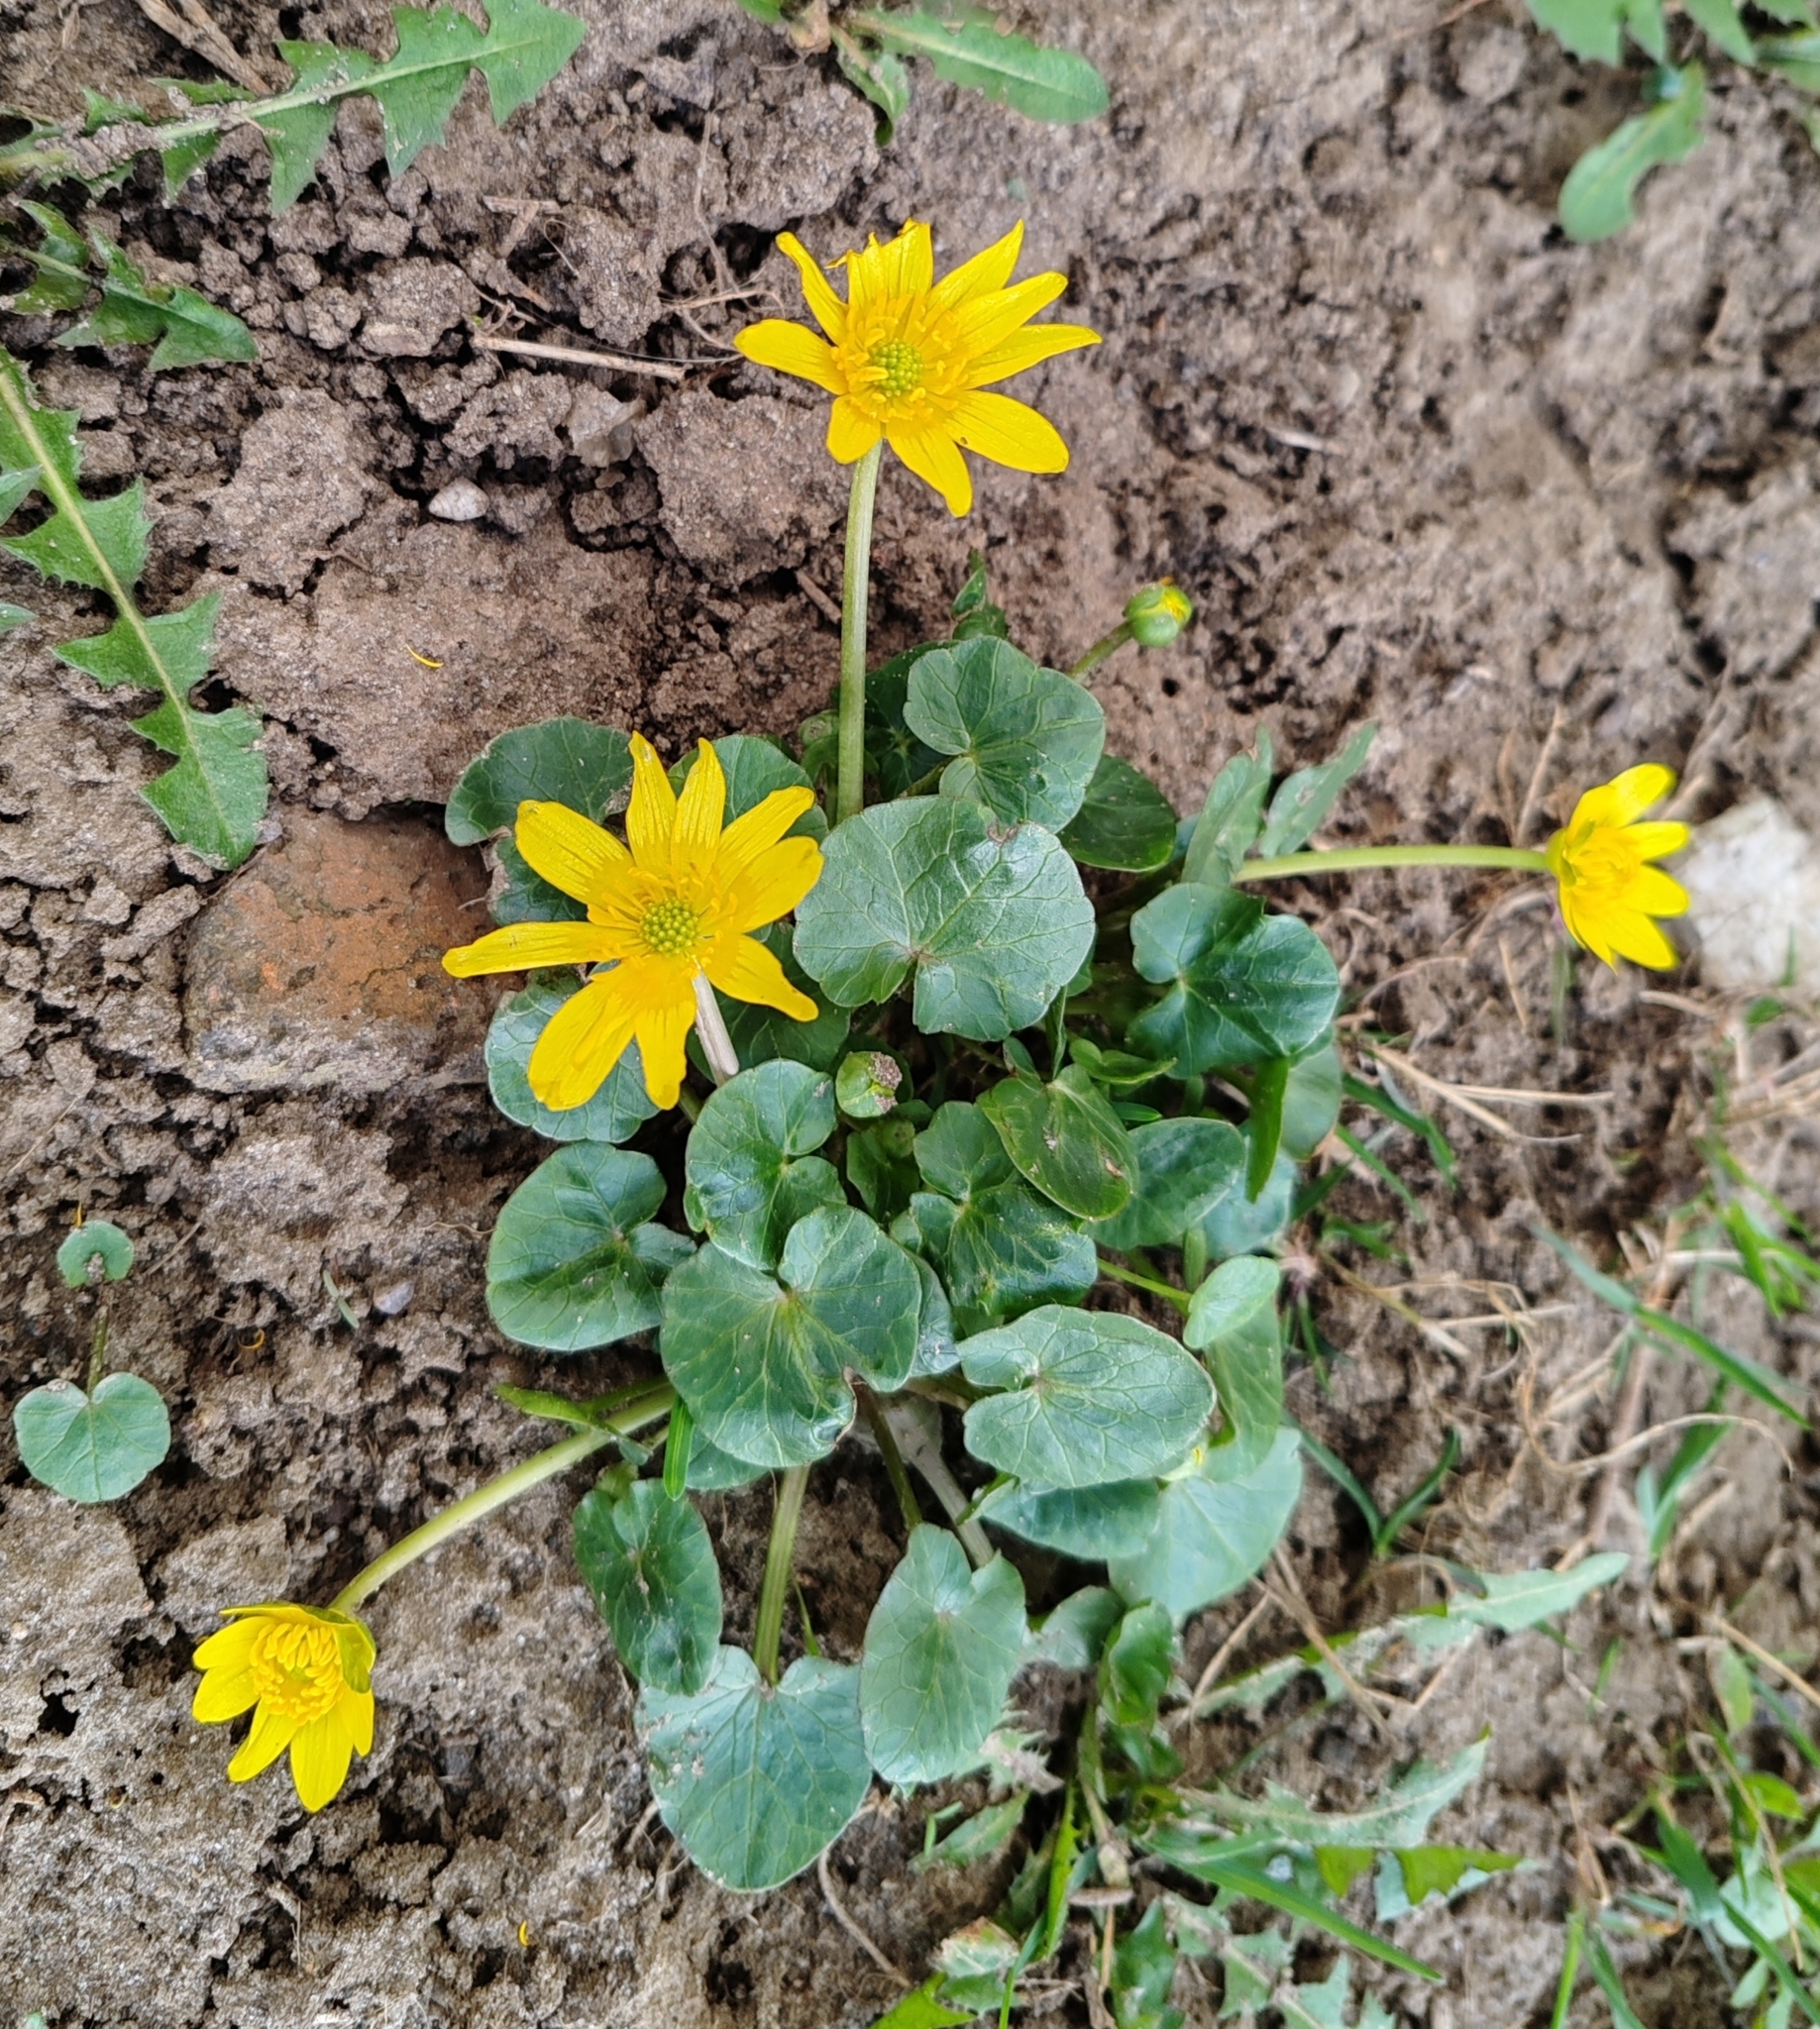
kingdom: Plantae
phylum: Tracheophyta
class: Magnoliopsida
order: Ranunculales
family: Ranunculaceae
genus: Ficaria
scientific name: Ficaria verna
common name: Lesser celandine
